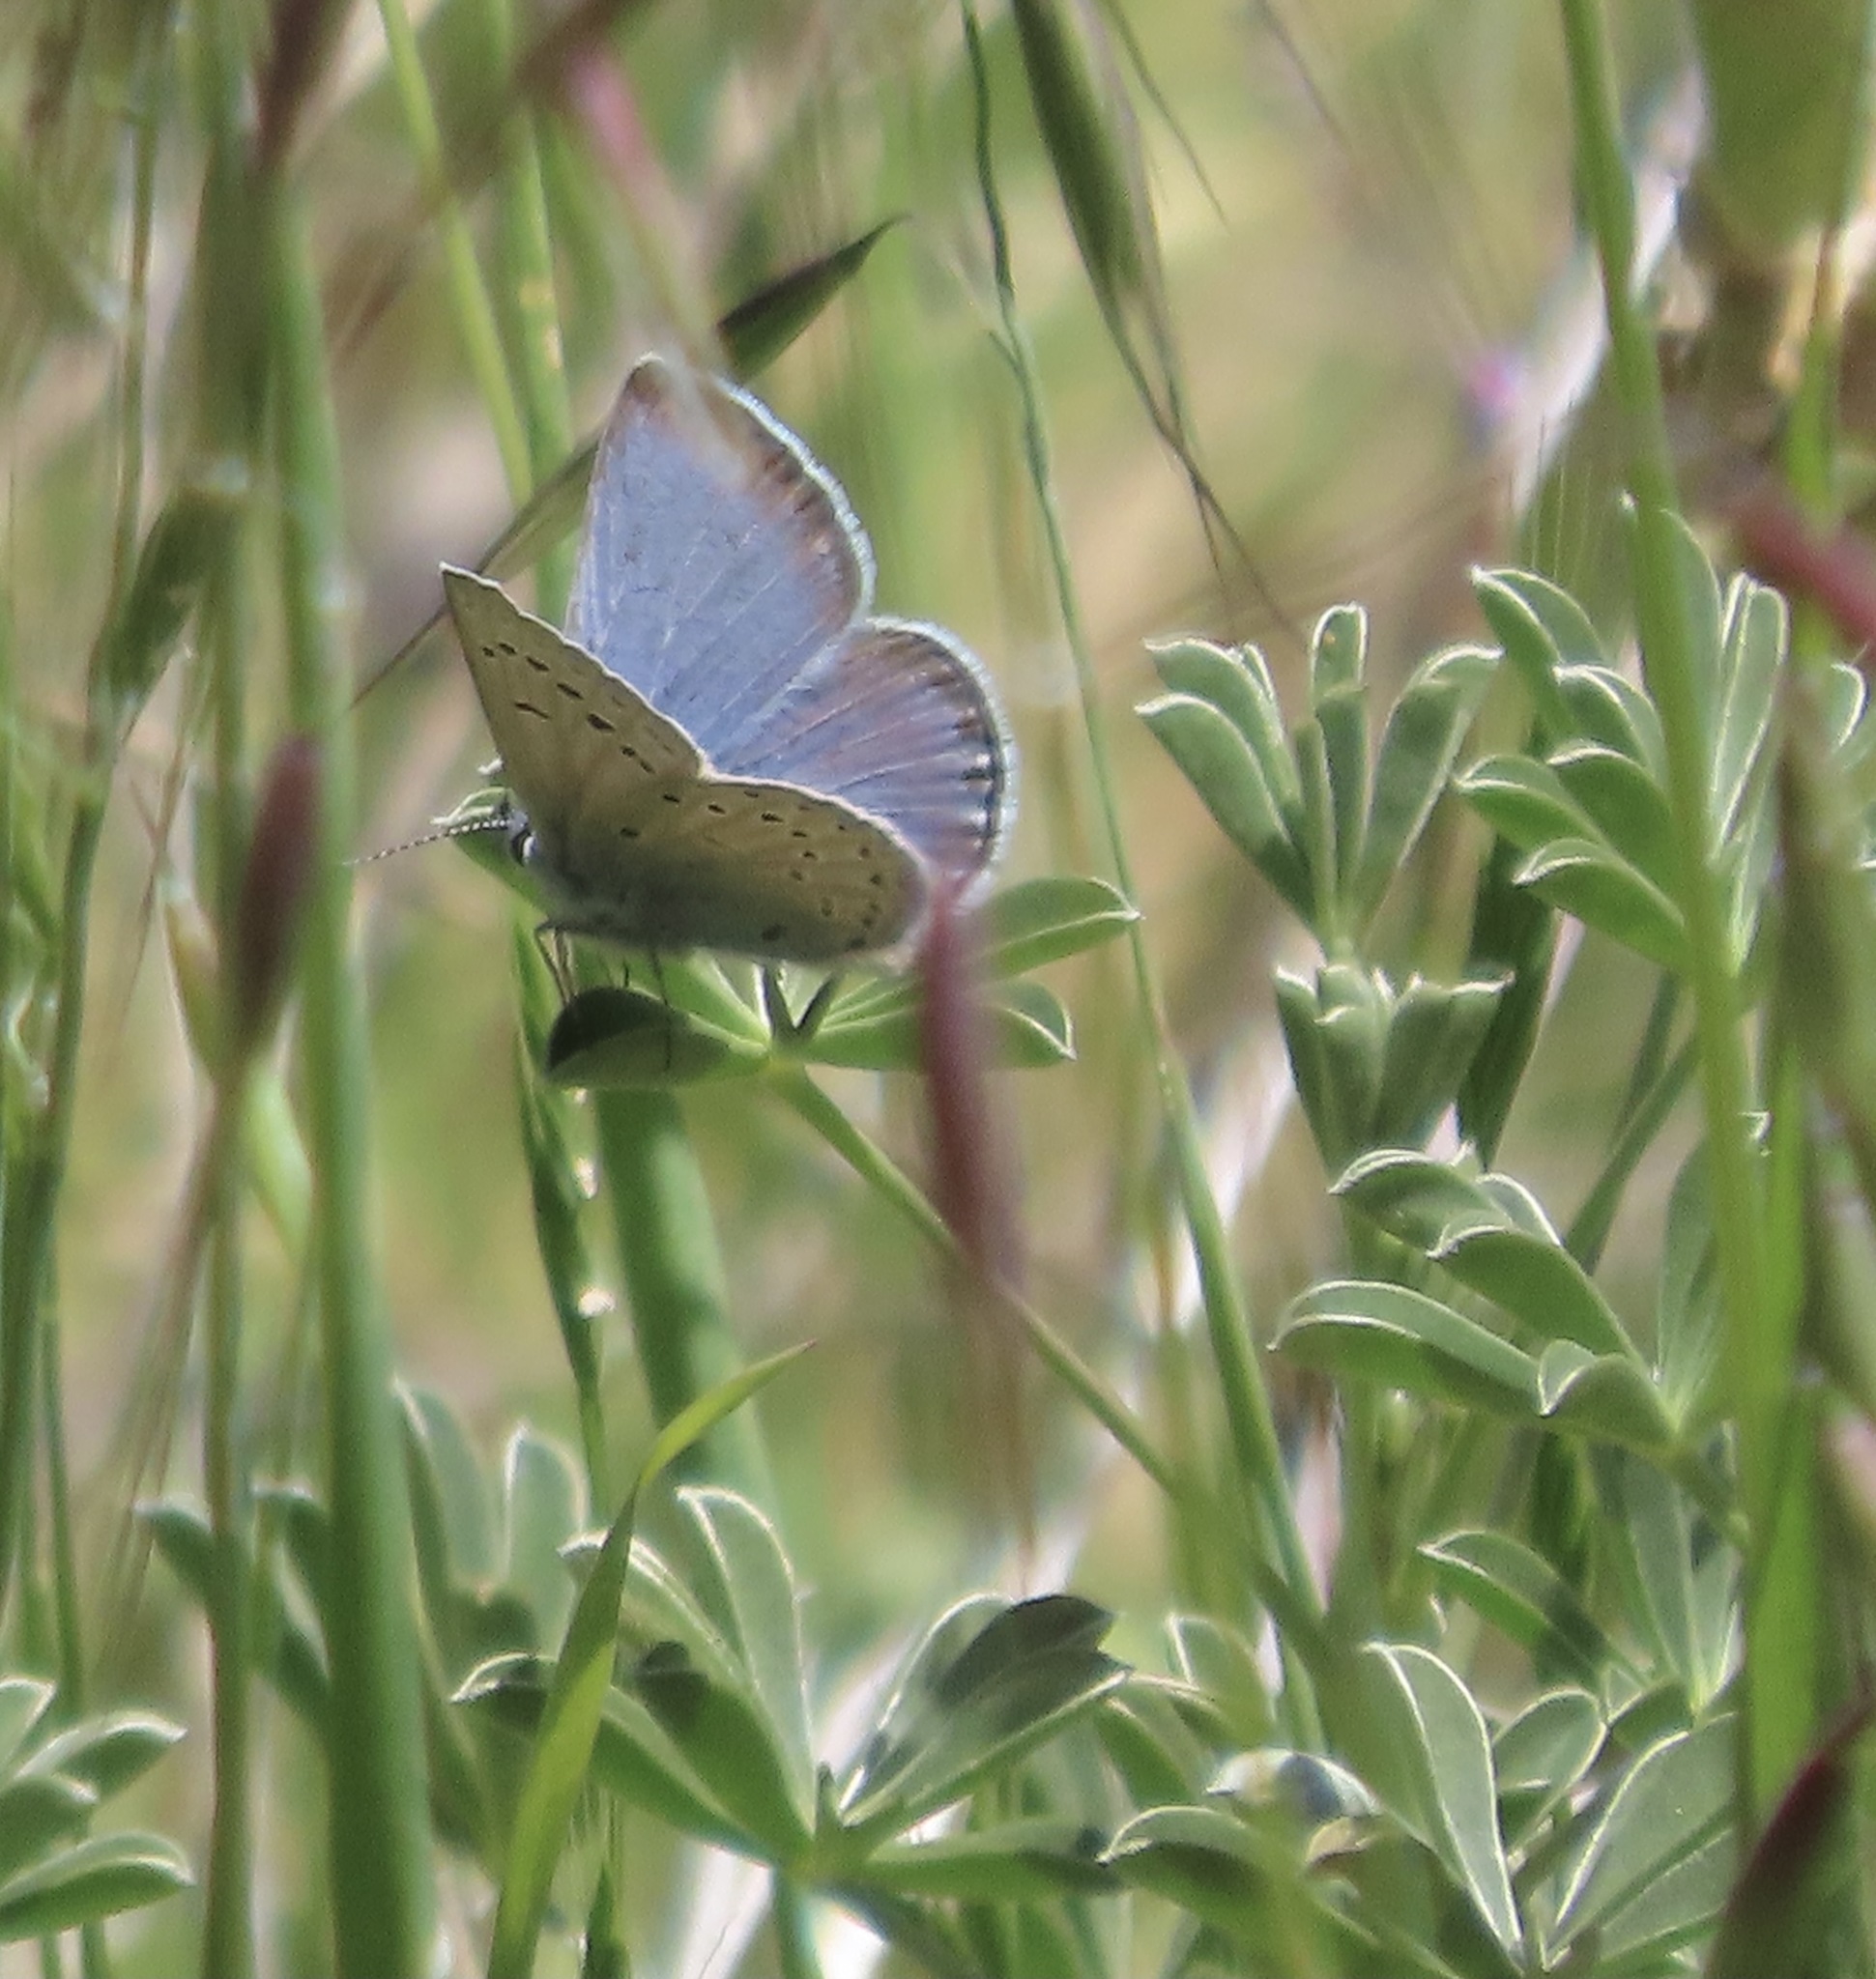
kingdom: Animalia
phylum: Arthropoda
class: Insecta
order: Lepidoptera
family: Lycaenidae
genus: Icaricia
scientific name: Icaricia icarioides
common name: Boisduval's blue
